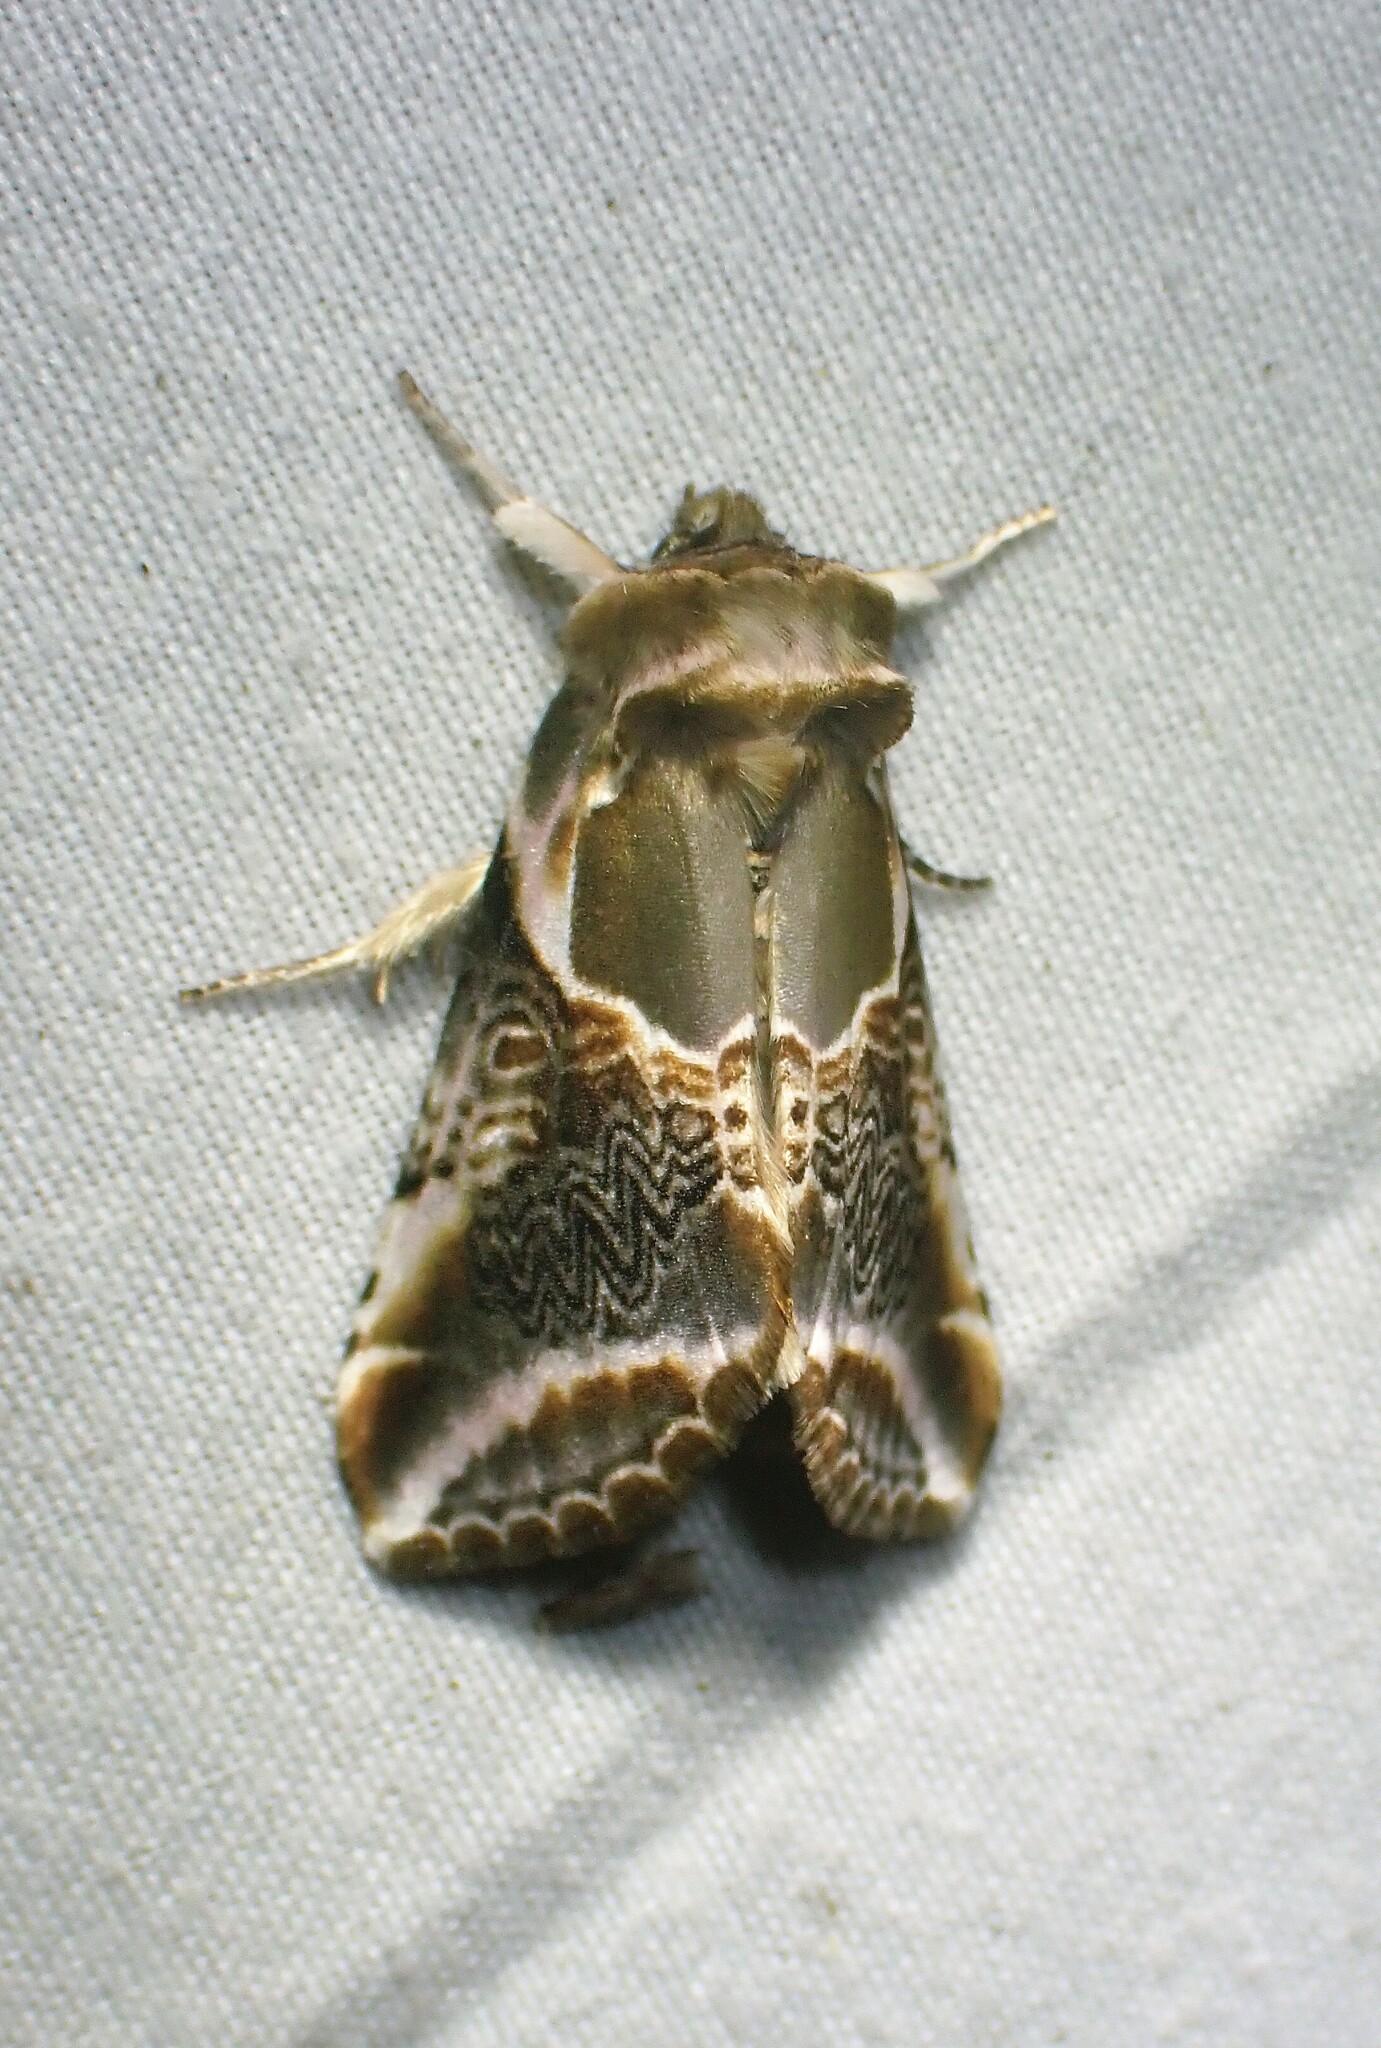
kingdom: Animalia
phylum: Arthropoda
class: Insecta
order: Lepidoptera
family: Drepanidae
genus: Habrosyne
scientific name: Habrosyne scripta
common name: Lettered habrosyne moth
